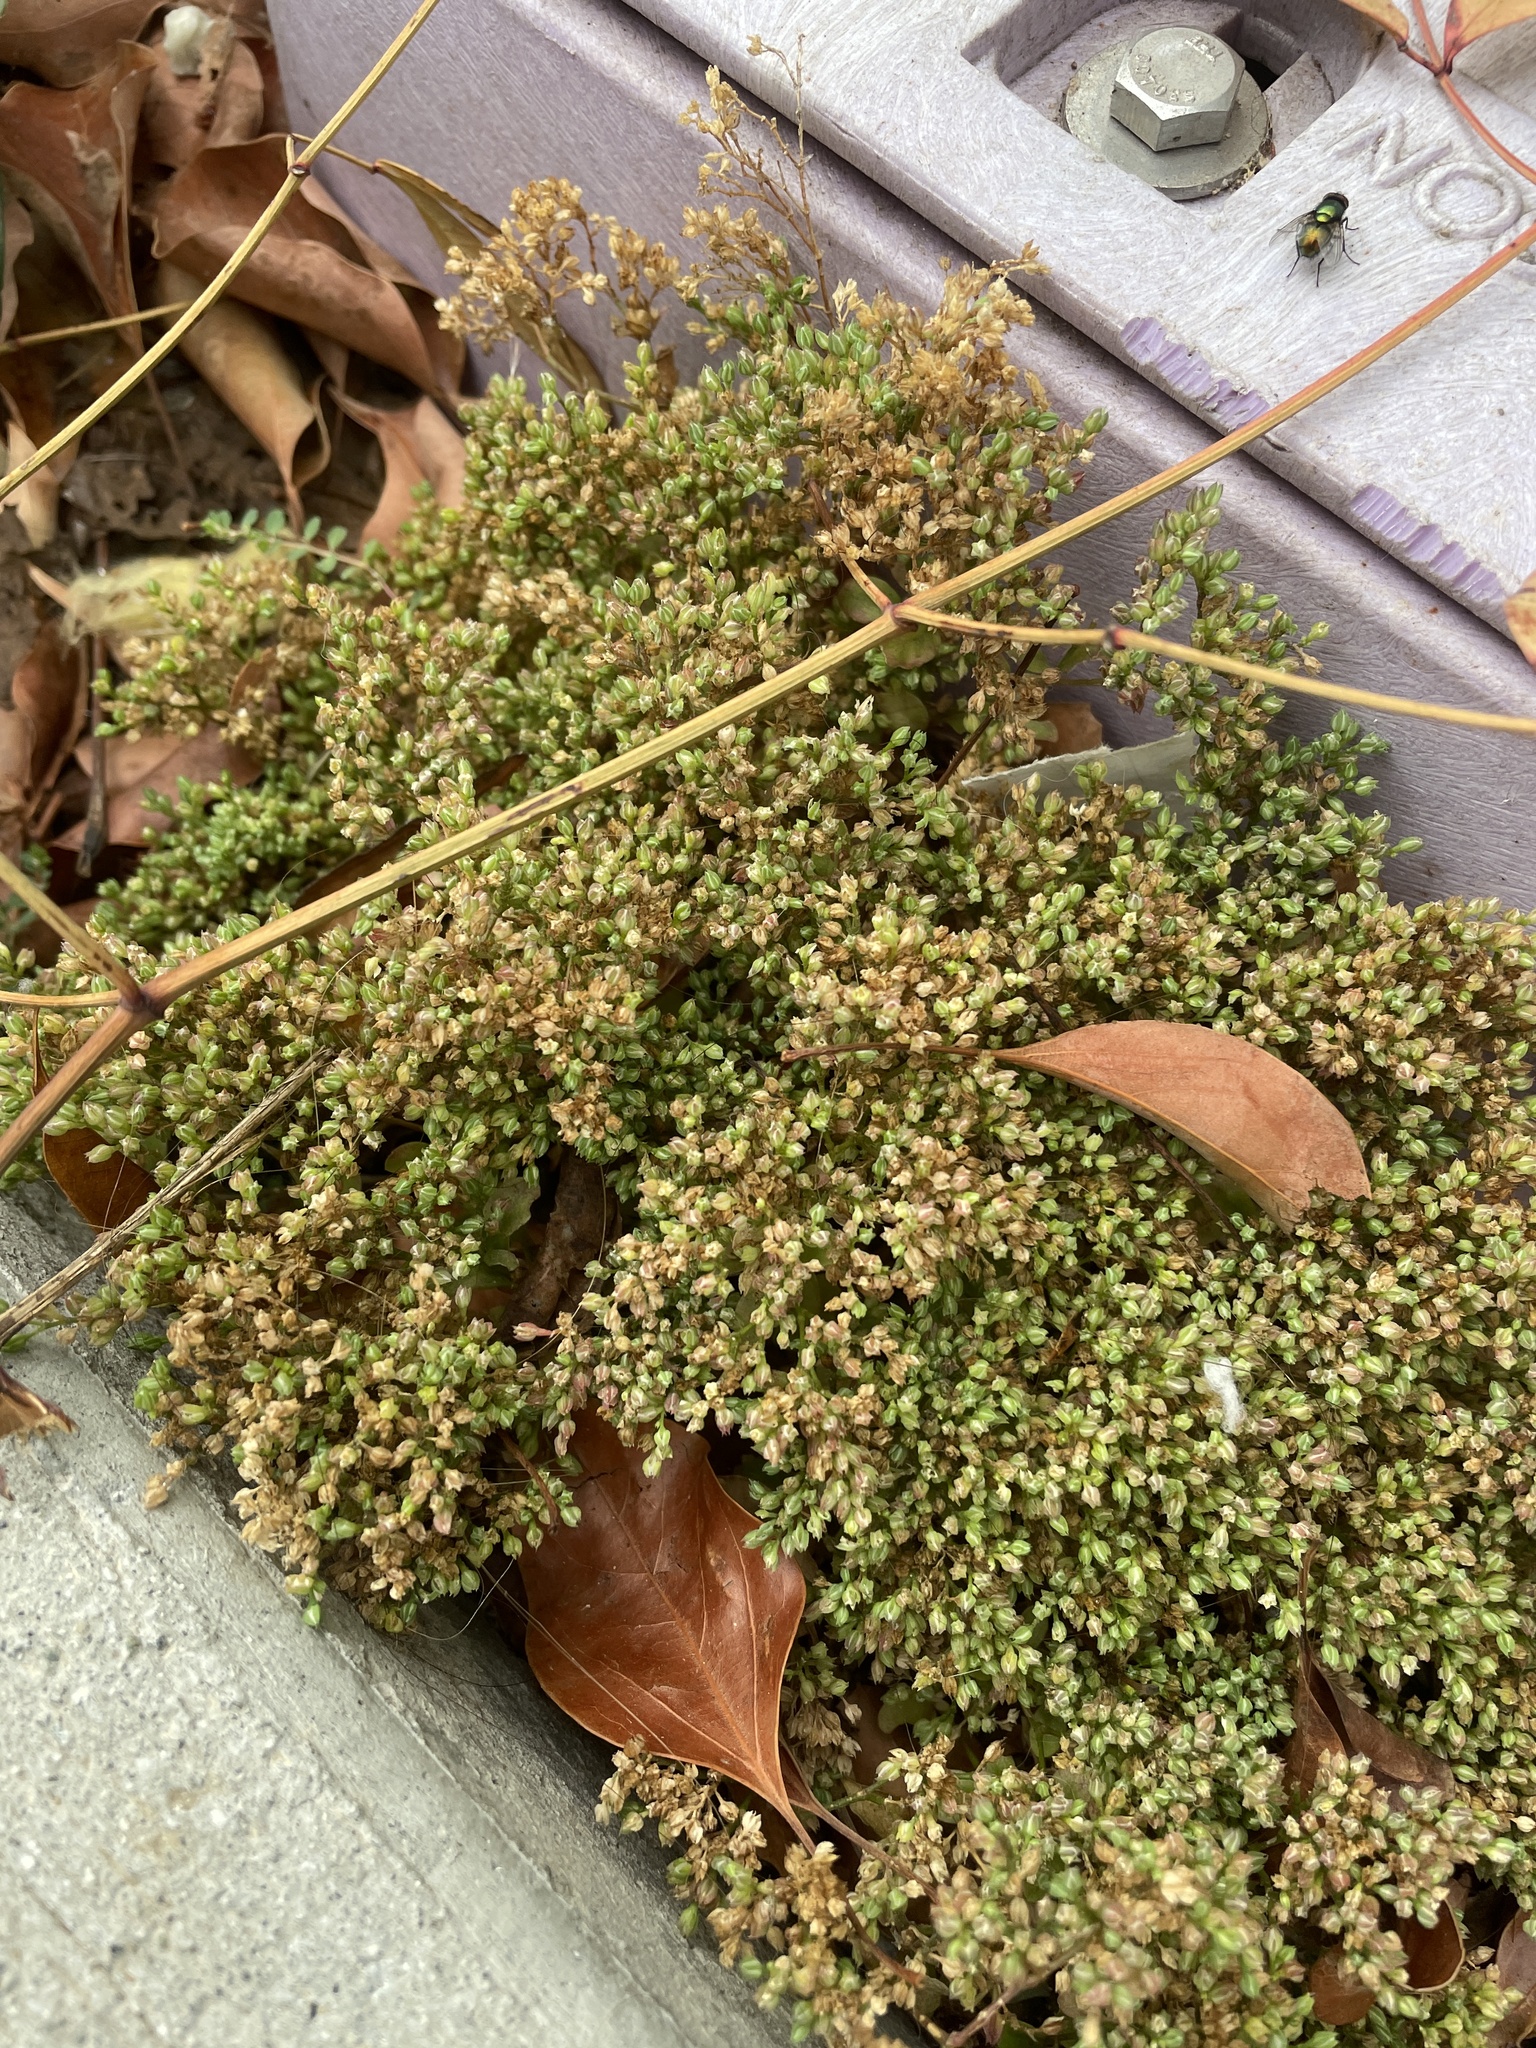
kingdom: Plantae
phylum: Tracheophyta
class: Magnoliopsida
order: Caryophyllales
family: Caryophyllaceae
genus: Polycarpon
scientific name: Polycarpon tetraphyllum
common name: Four-leaved all-seed
